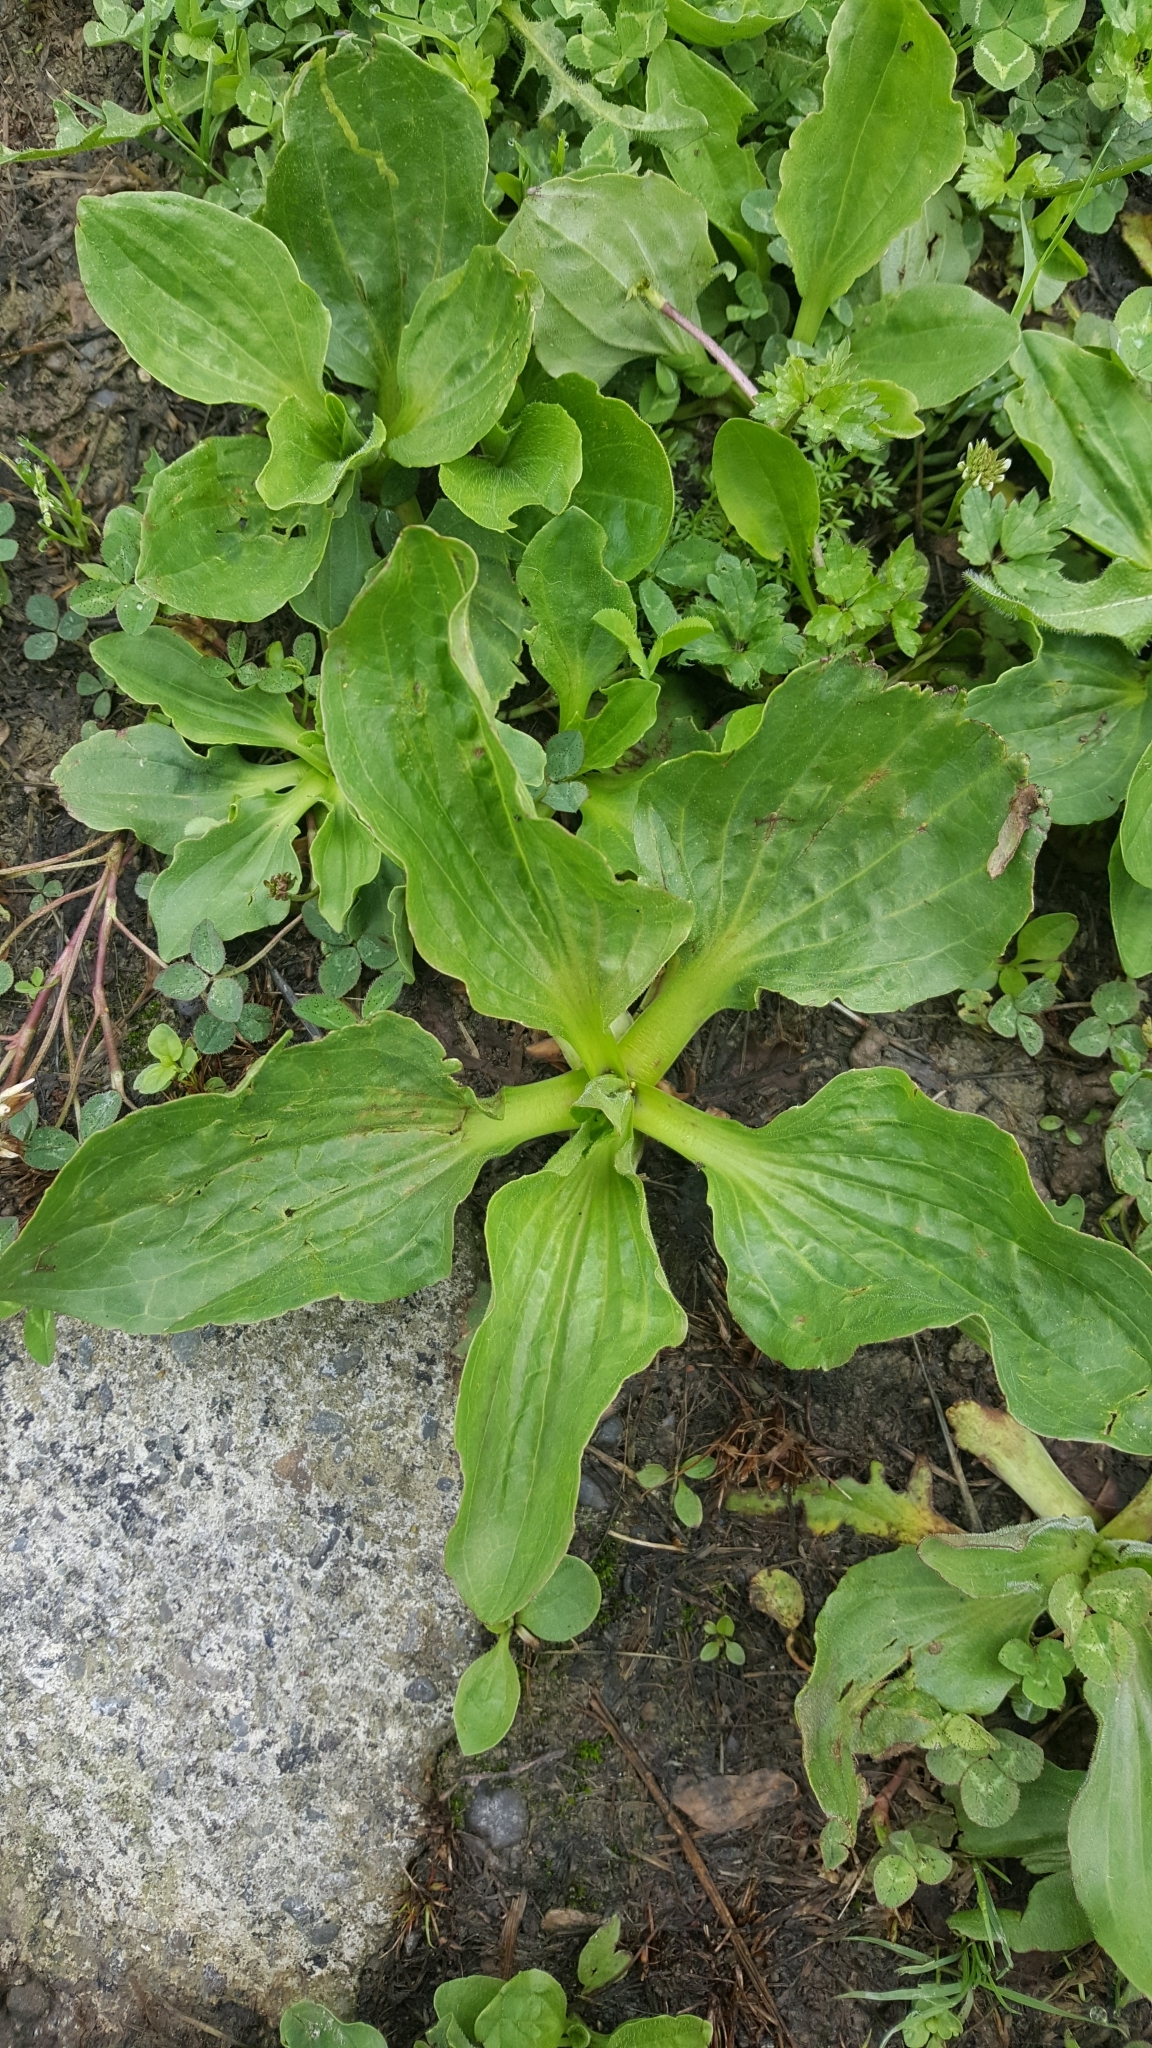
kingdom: Plantae
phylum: Tracheophyta
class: Magnoliopsida
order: Lamiales
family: Plantaginaceae
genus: Plantago
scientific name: Plantago major
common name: Common plantain
